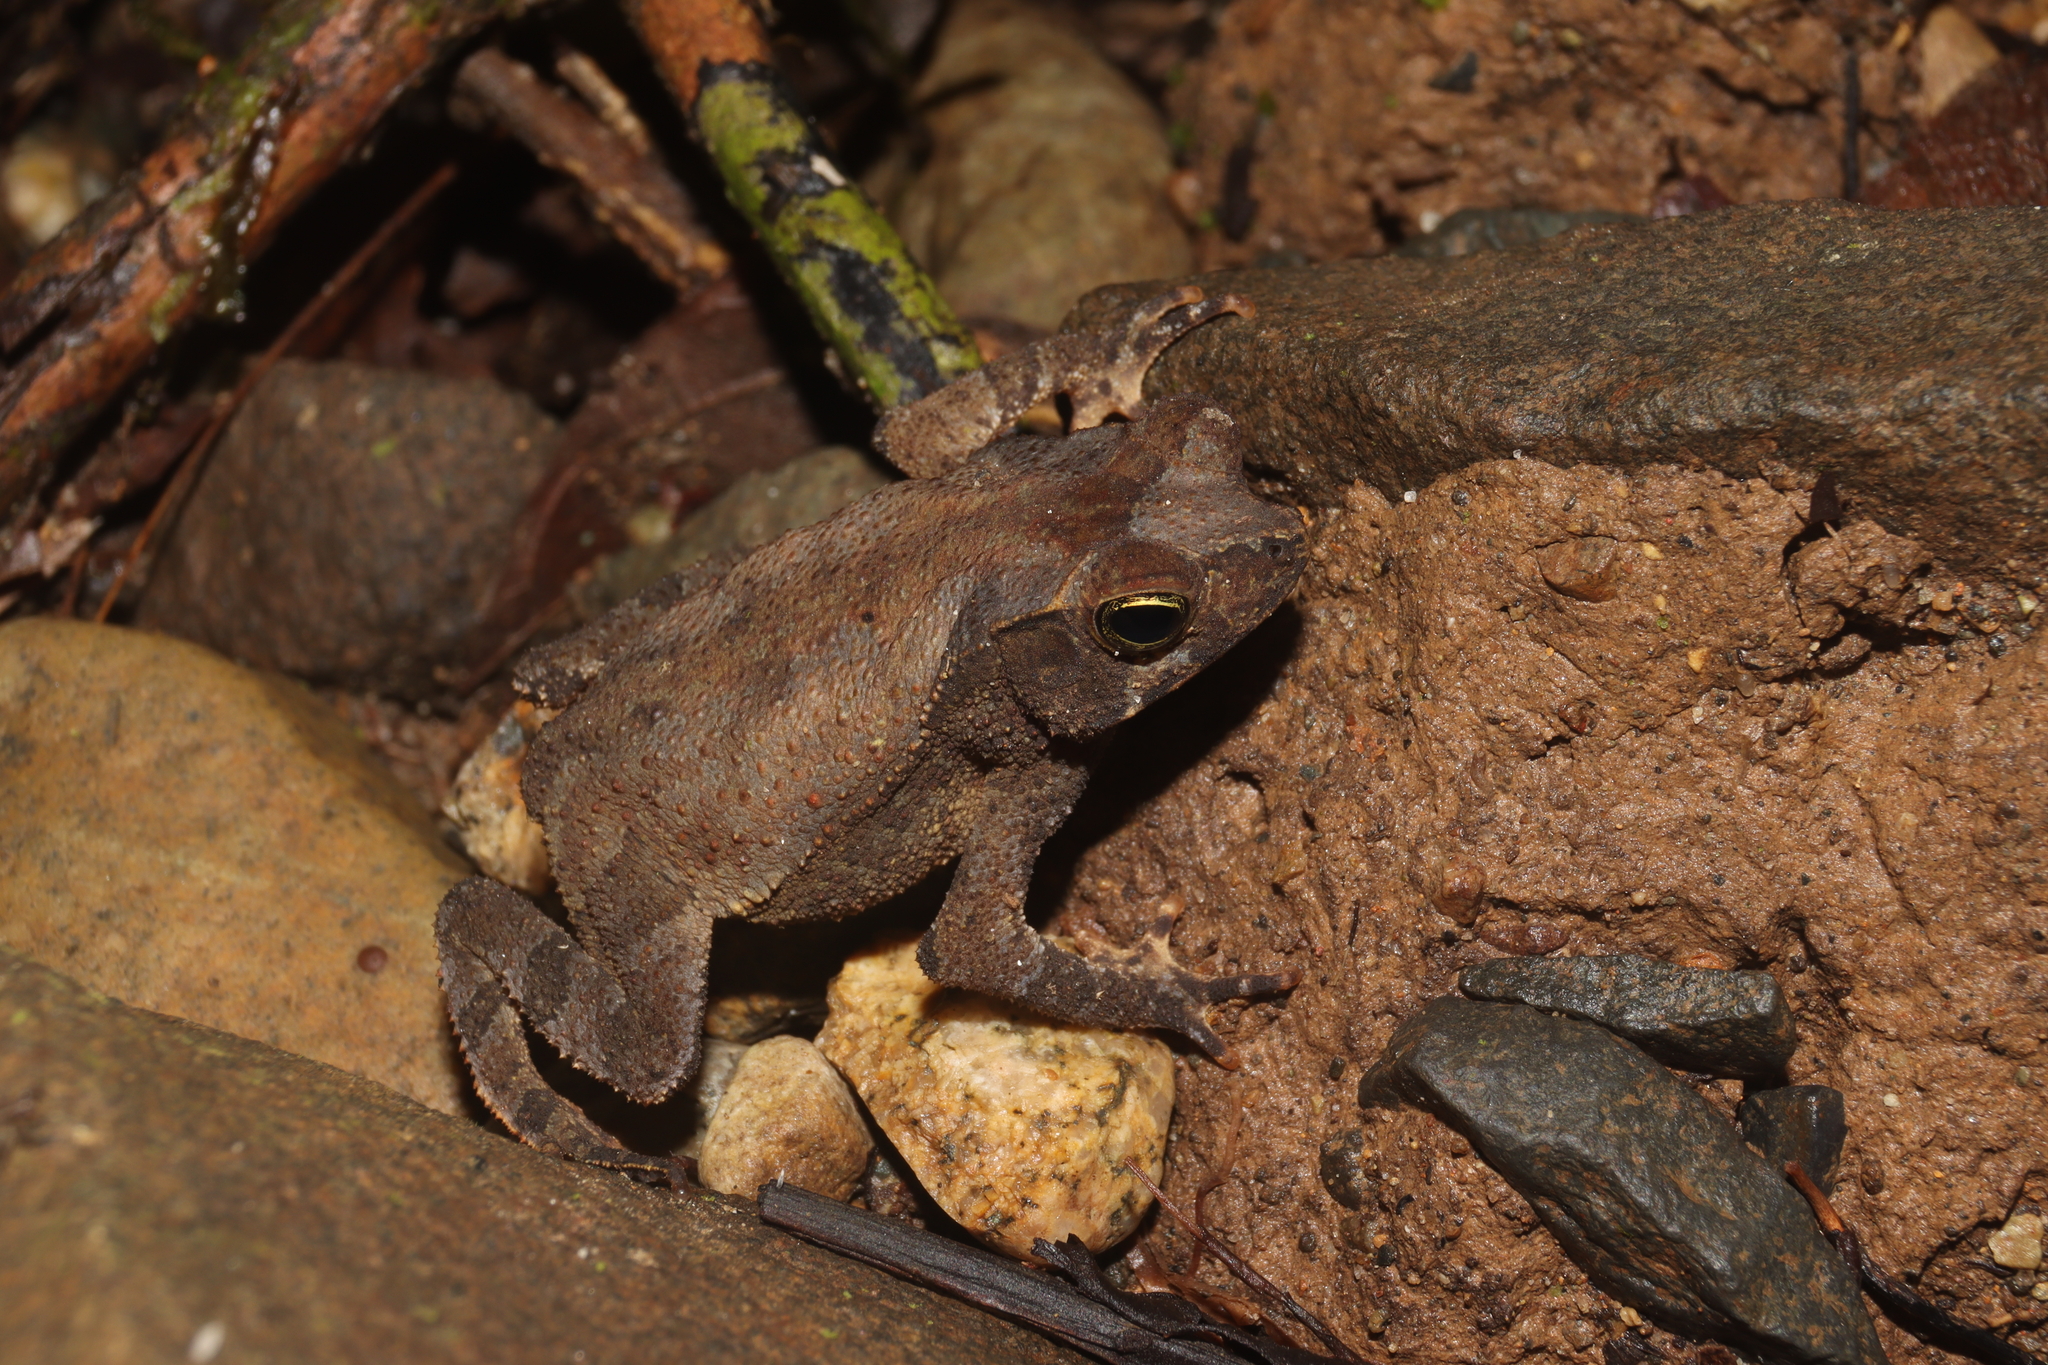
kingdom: Animalia
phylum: Chordata
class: Amphibia
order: Anura
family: Bufonidae
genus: Rhinella
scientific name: Rhinella alata
